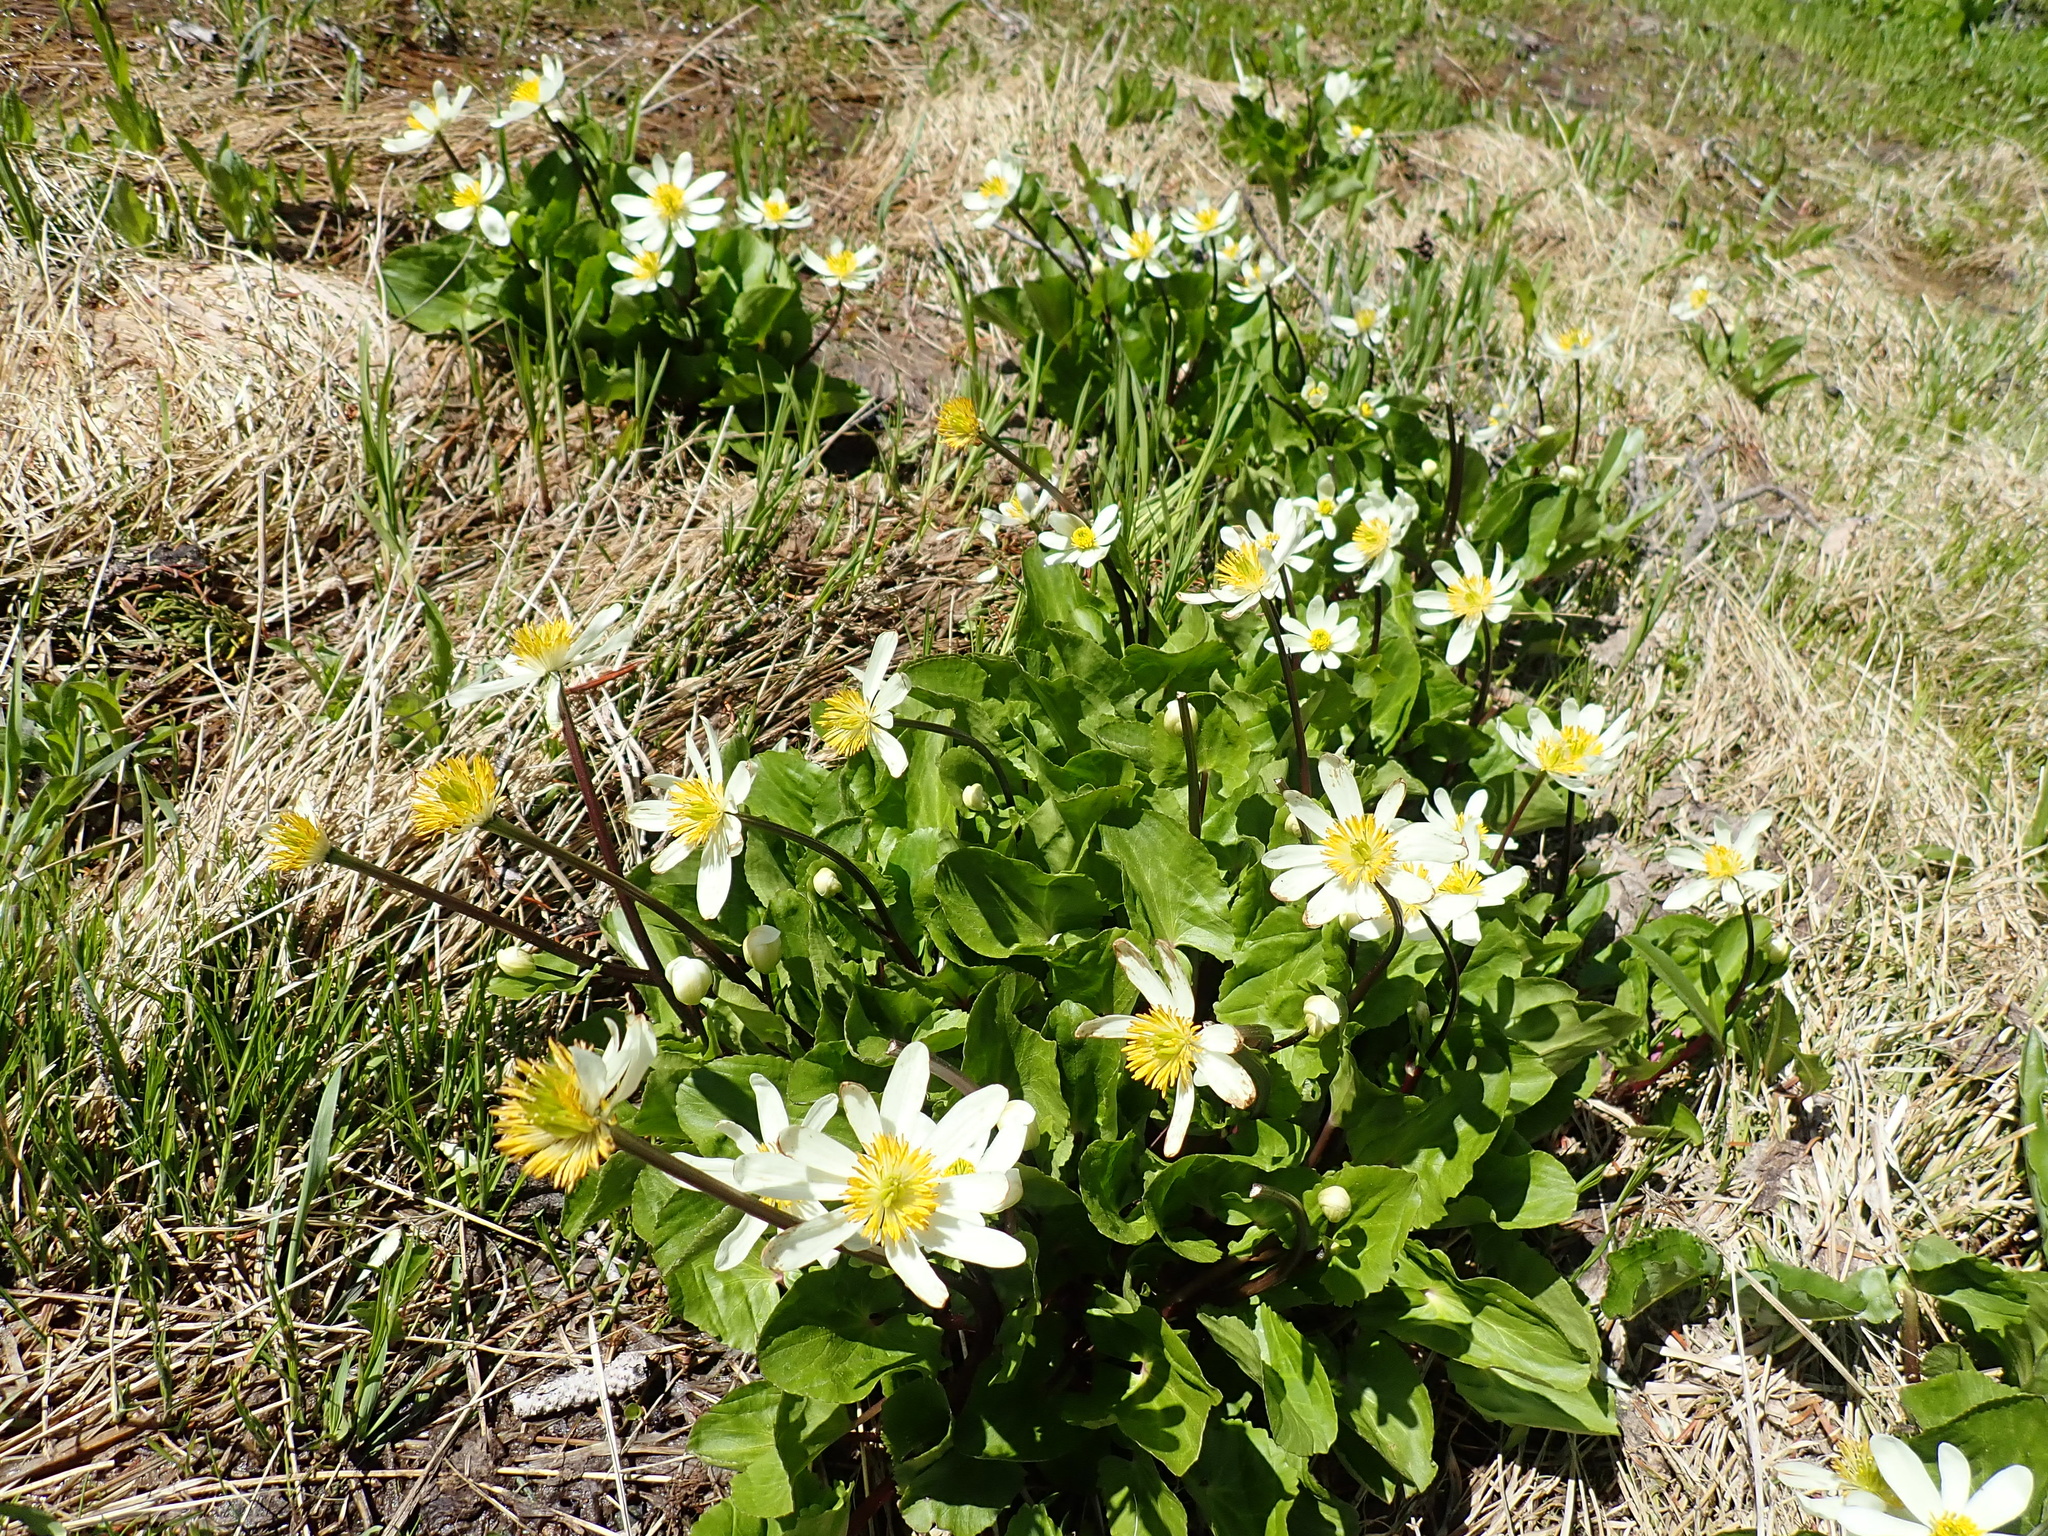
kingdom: Plantae
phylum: Tracheophyta
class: Magnoliopsida
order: Ranunculales
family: Ranunculaceae
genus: Caltha
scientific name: Caltha leptosepala
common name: Elkslip
